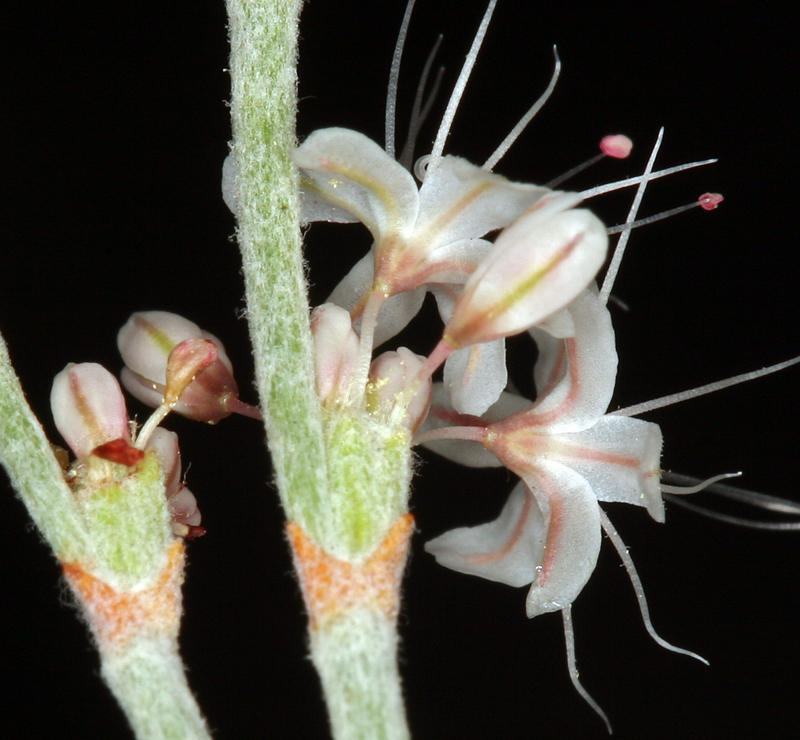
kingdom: Plantae
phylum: Tracheophyta
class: Magnoliopsida
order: Caryophyllales
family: Polygonaceae
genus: Eriogonum
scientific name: Eriogonum wrightii
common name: Bastard-sage
